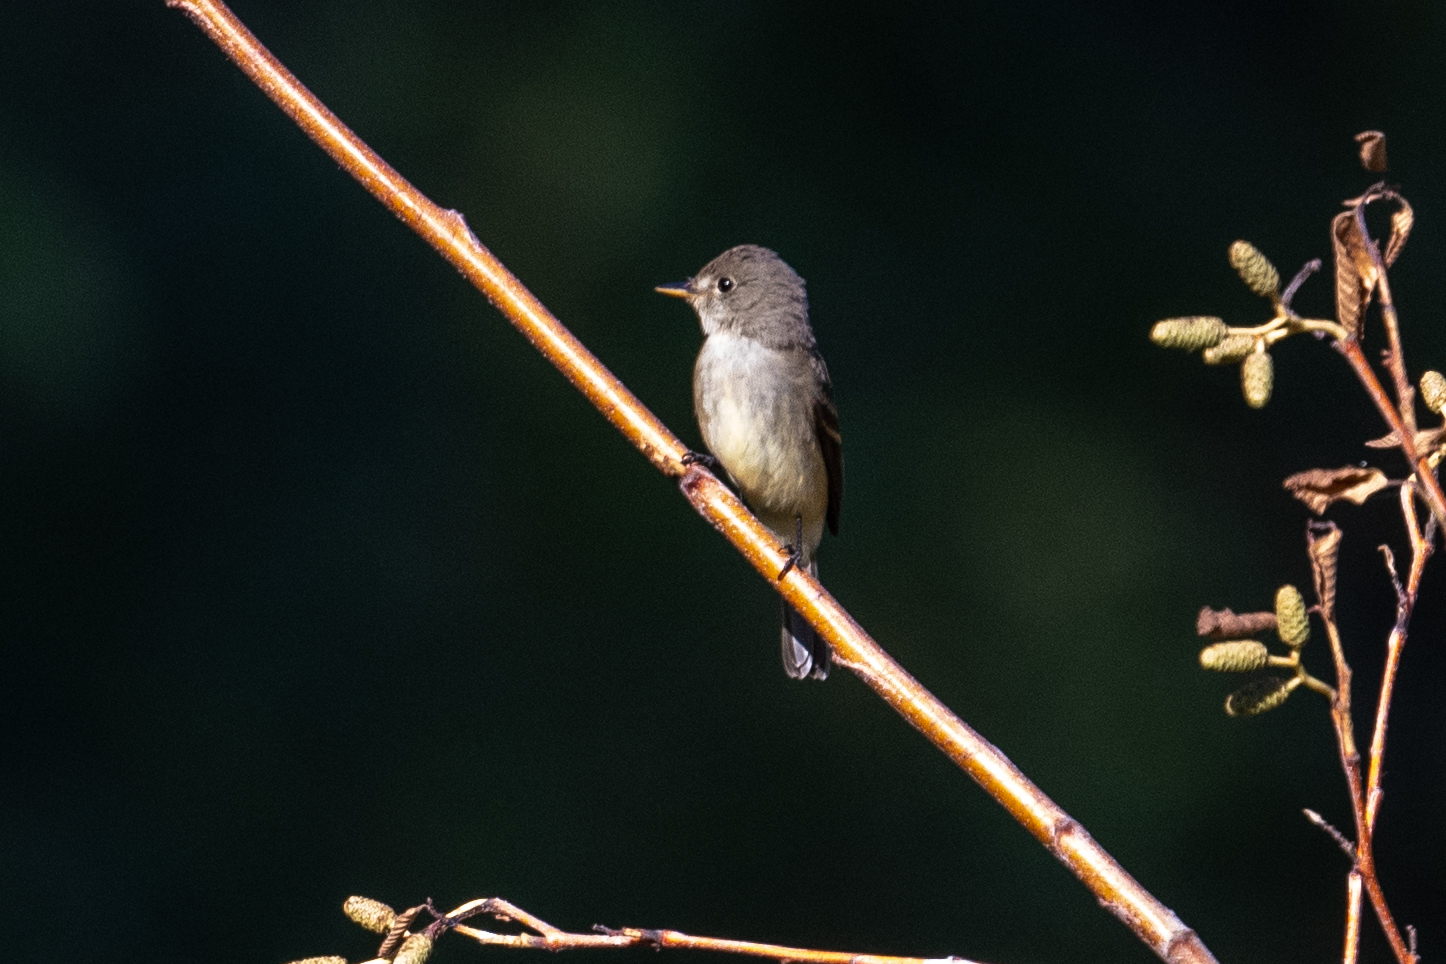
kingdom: Animalia
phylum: Chordata
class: Aves
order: Passeriformes
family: Tyrannidae
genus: Empidonax
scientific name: Empidonax traillii
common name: Willow flycatcher
